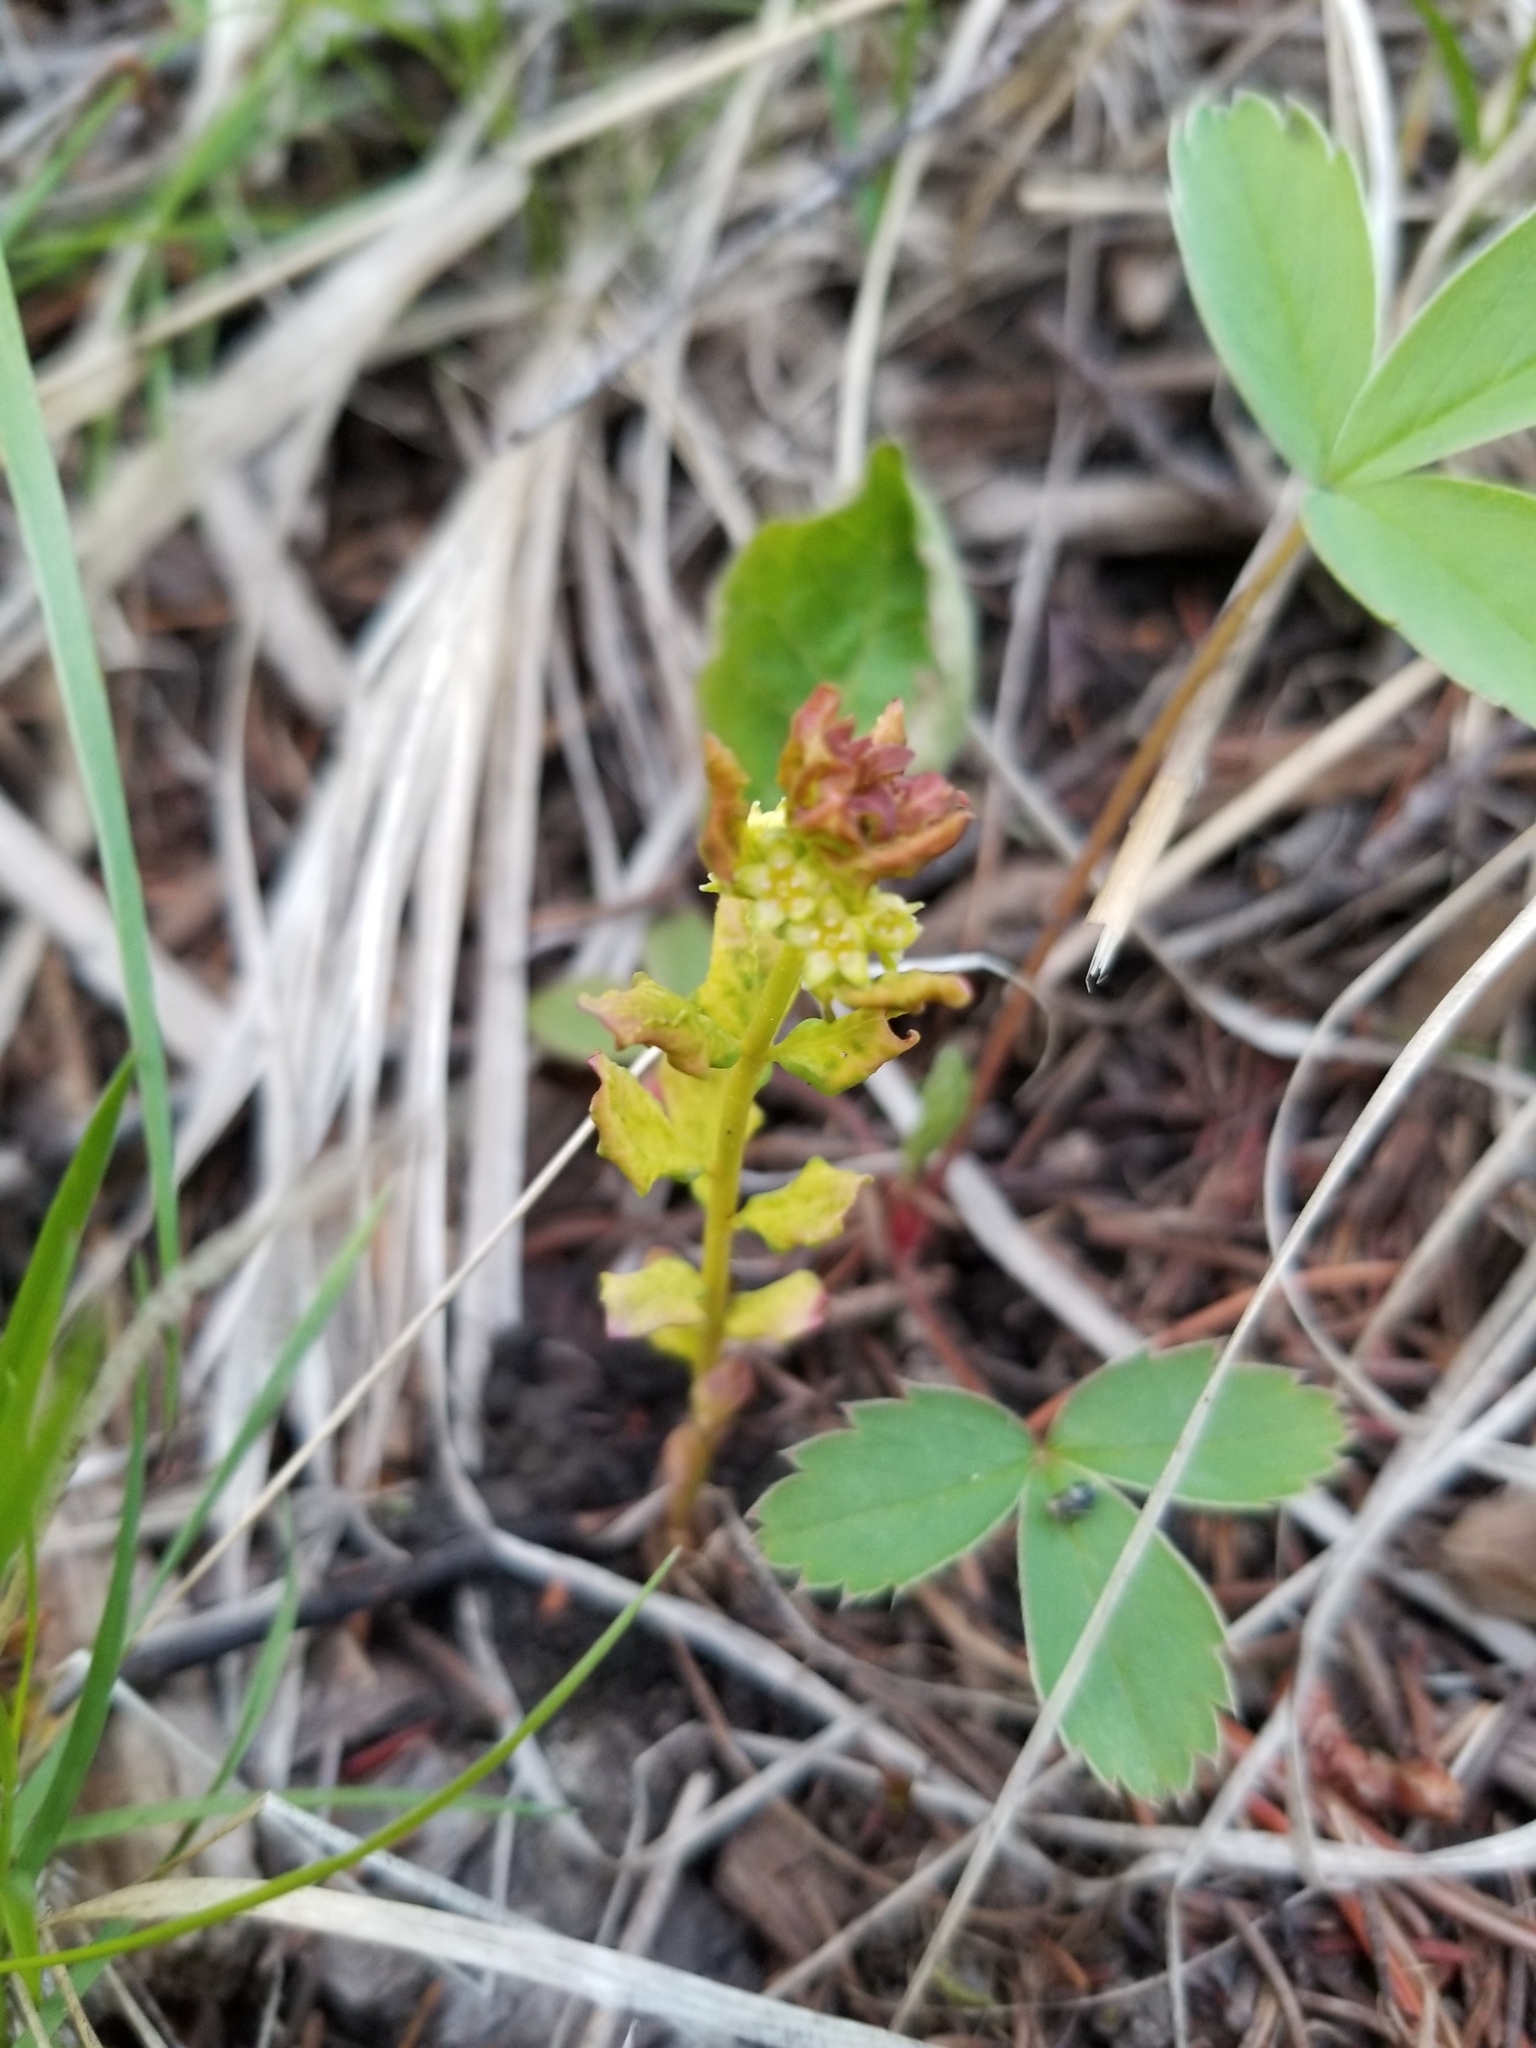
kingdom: Plantae
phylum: Tracheophyta
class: Magnoliopsida
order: Santalales
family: Comandraceae
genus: Geocaulon
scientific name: Geocaulon lividum
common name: Earthberry
